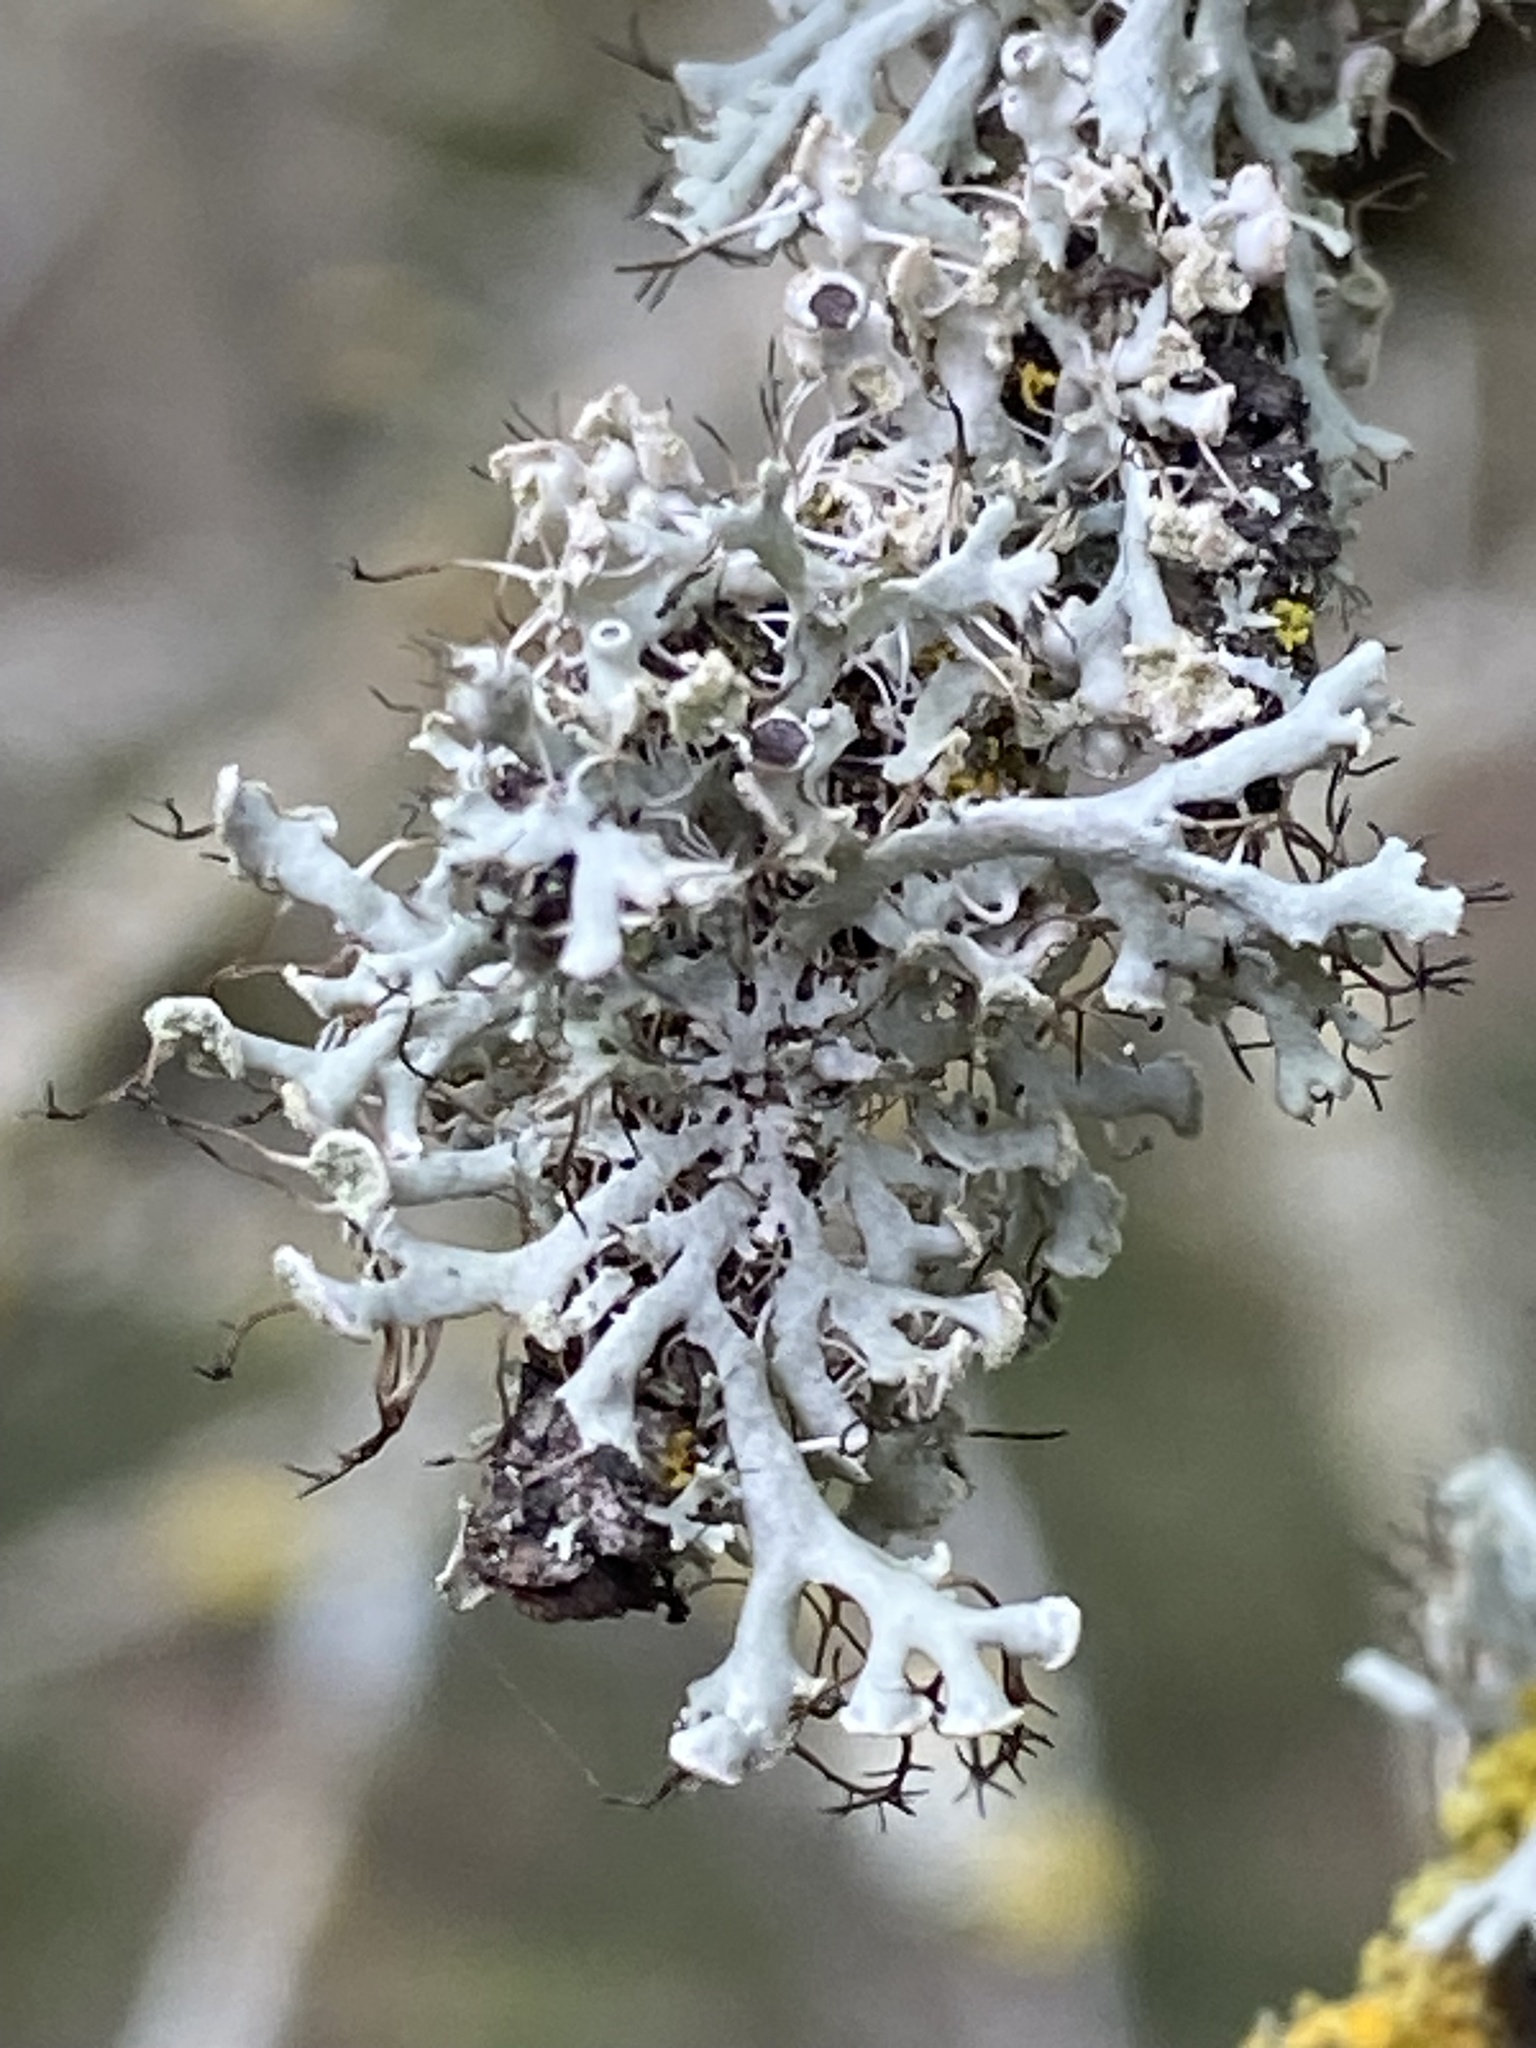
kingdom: Fungi
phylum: Ascomycota
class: Lecanoromycetes
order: Caliciales
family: Physciaceae
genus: Physcia
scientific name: Physcia tenella
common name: Fringed rosette lichen
